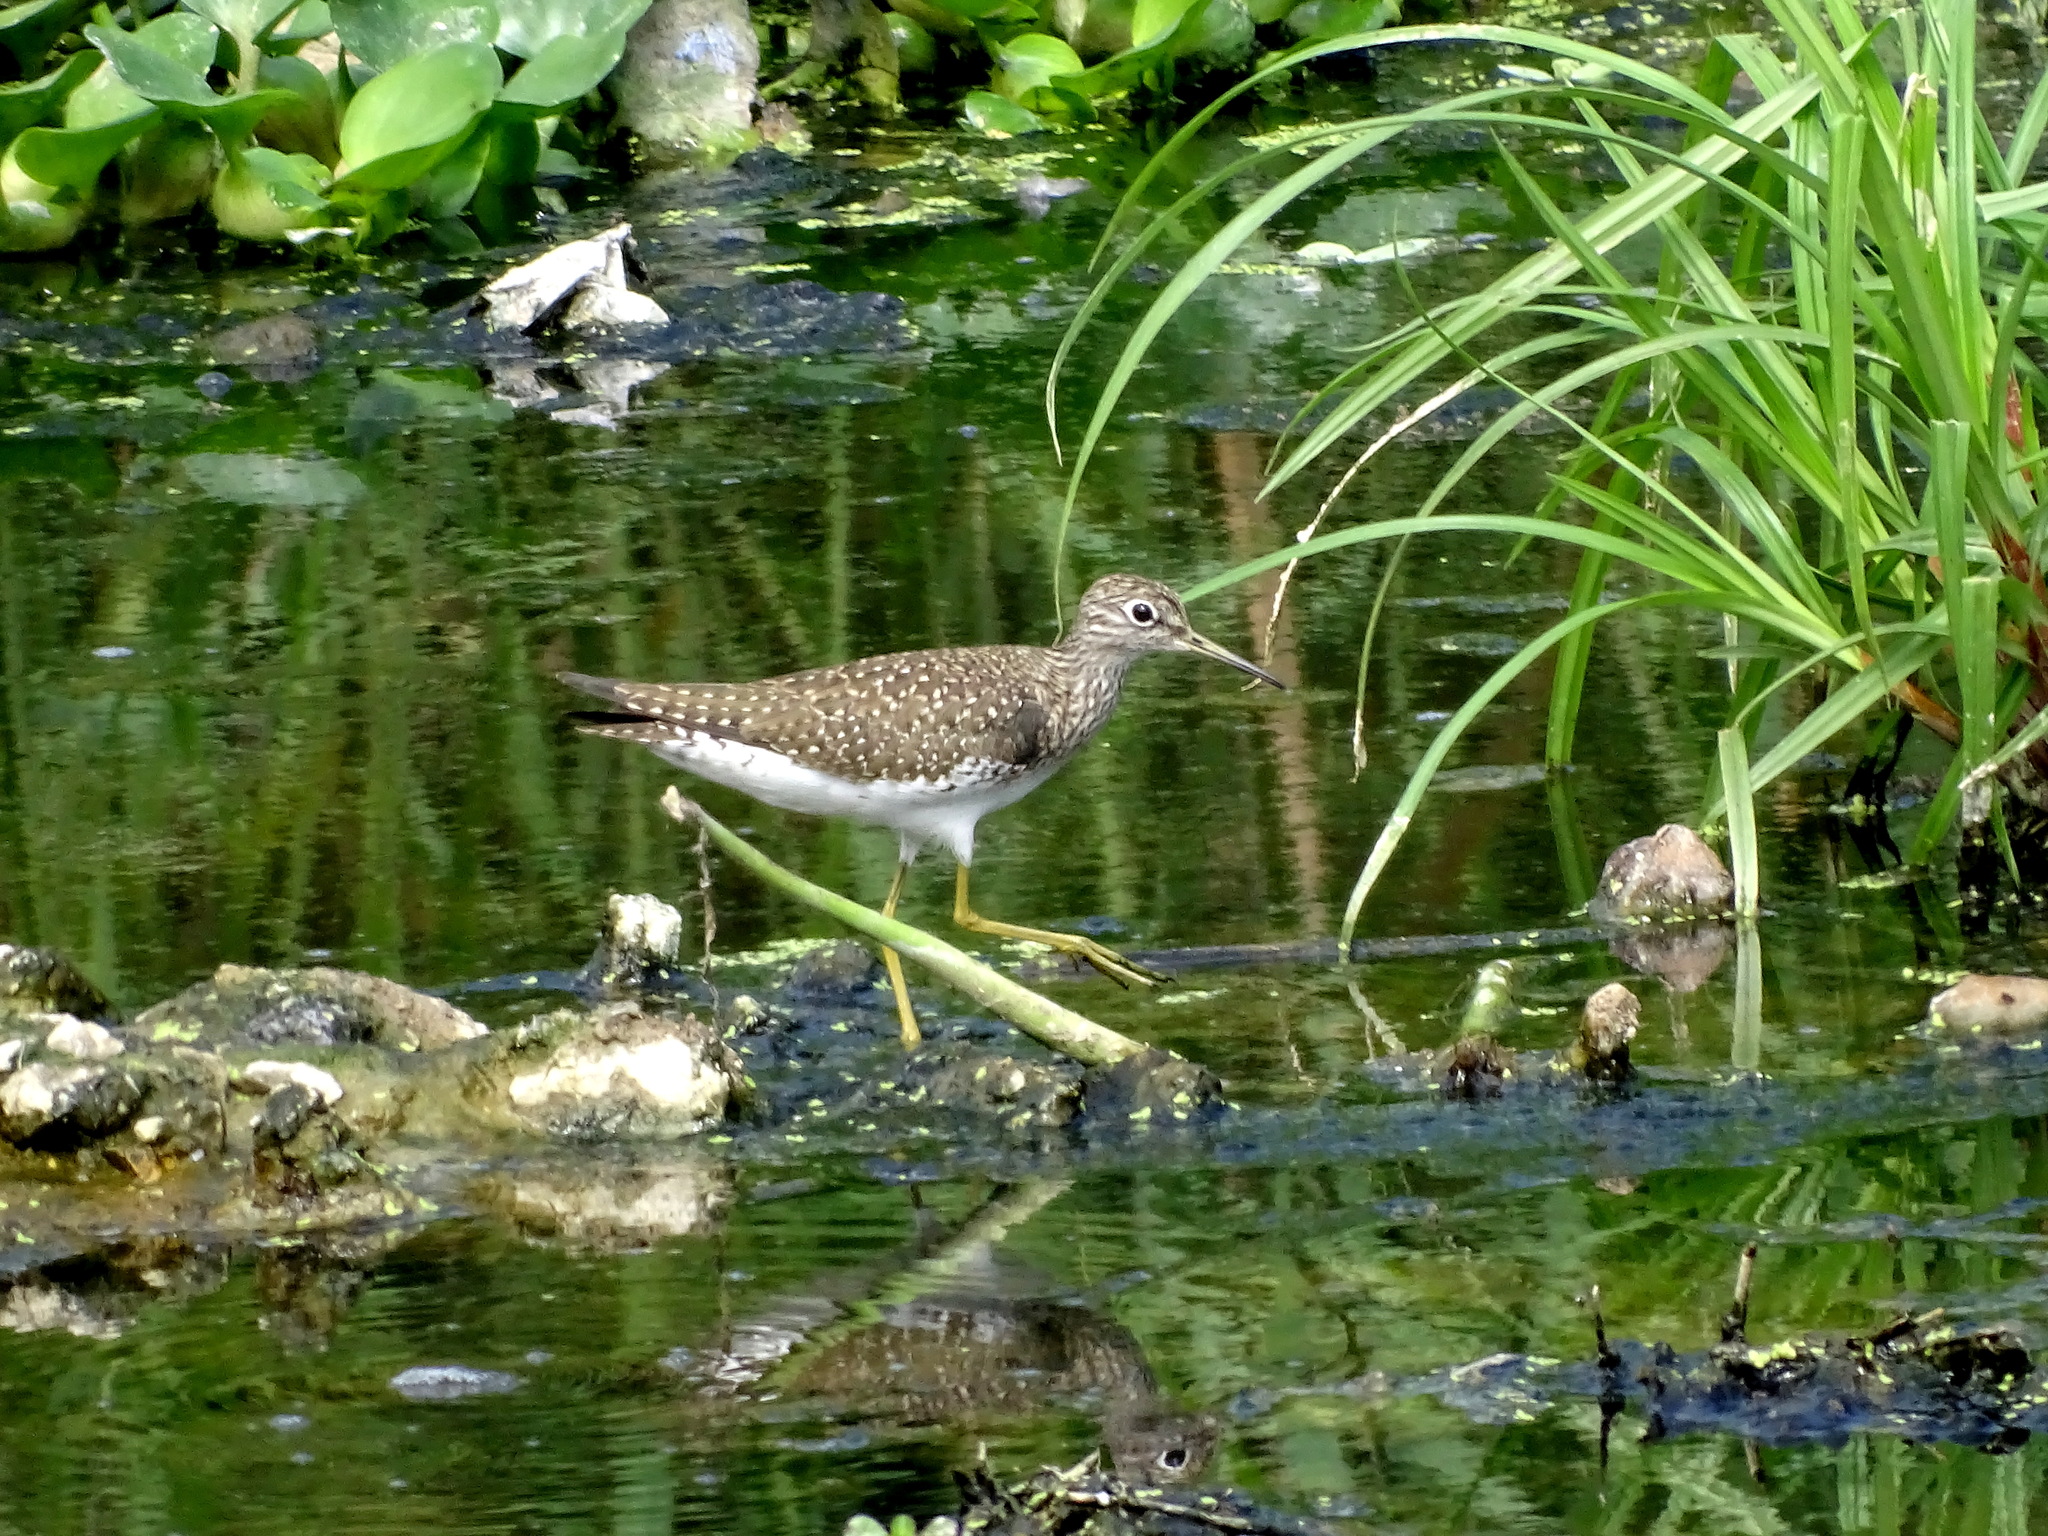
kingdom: Animalia
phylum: Chordata
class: Aves
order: Charadriiformes
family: Scolopacidae
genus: Tringa
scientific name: Tringa solitaria
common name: Solitary sandpiper
